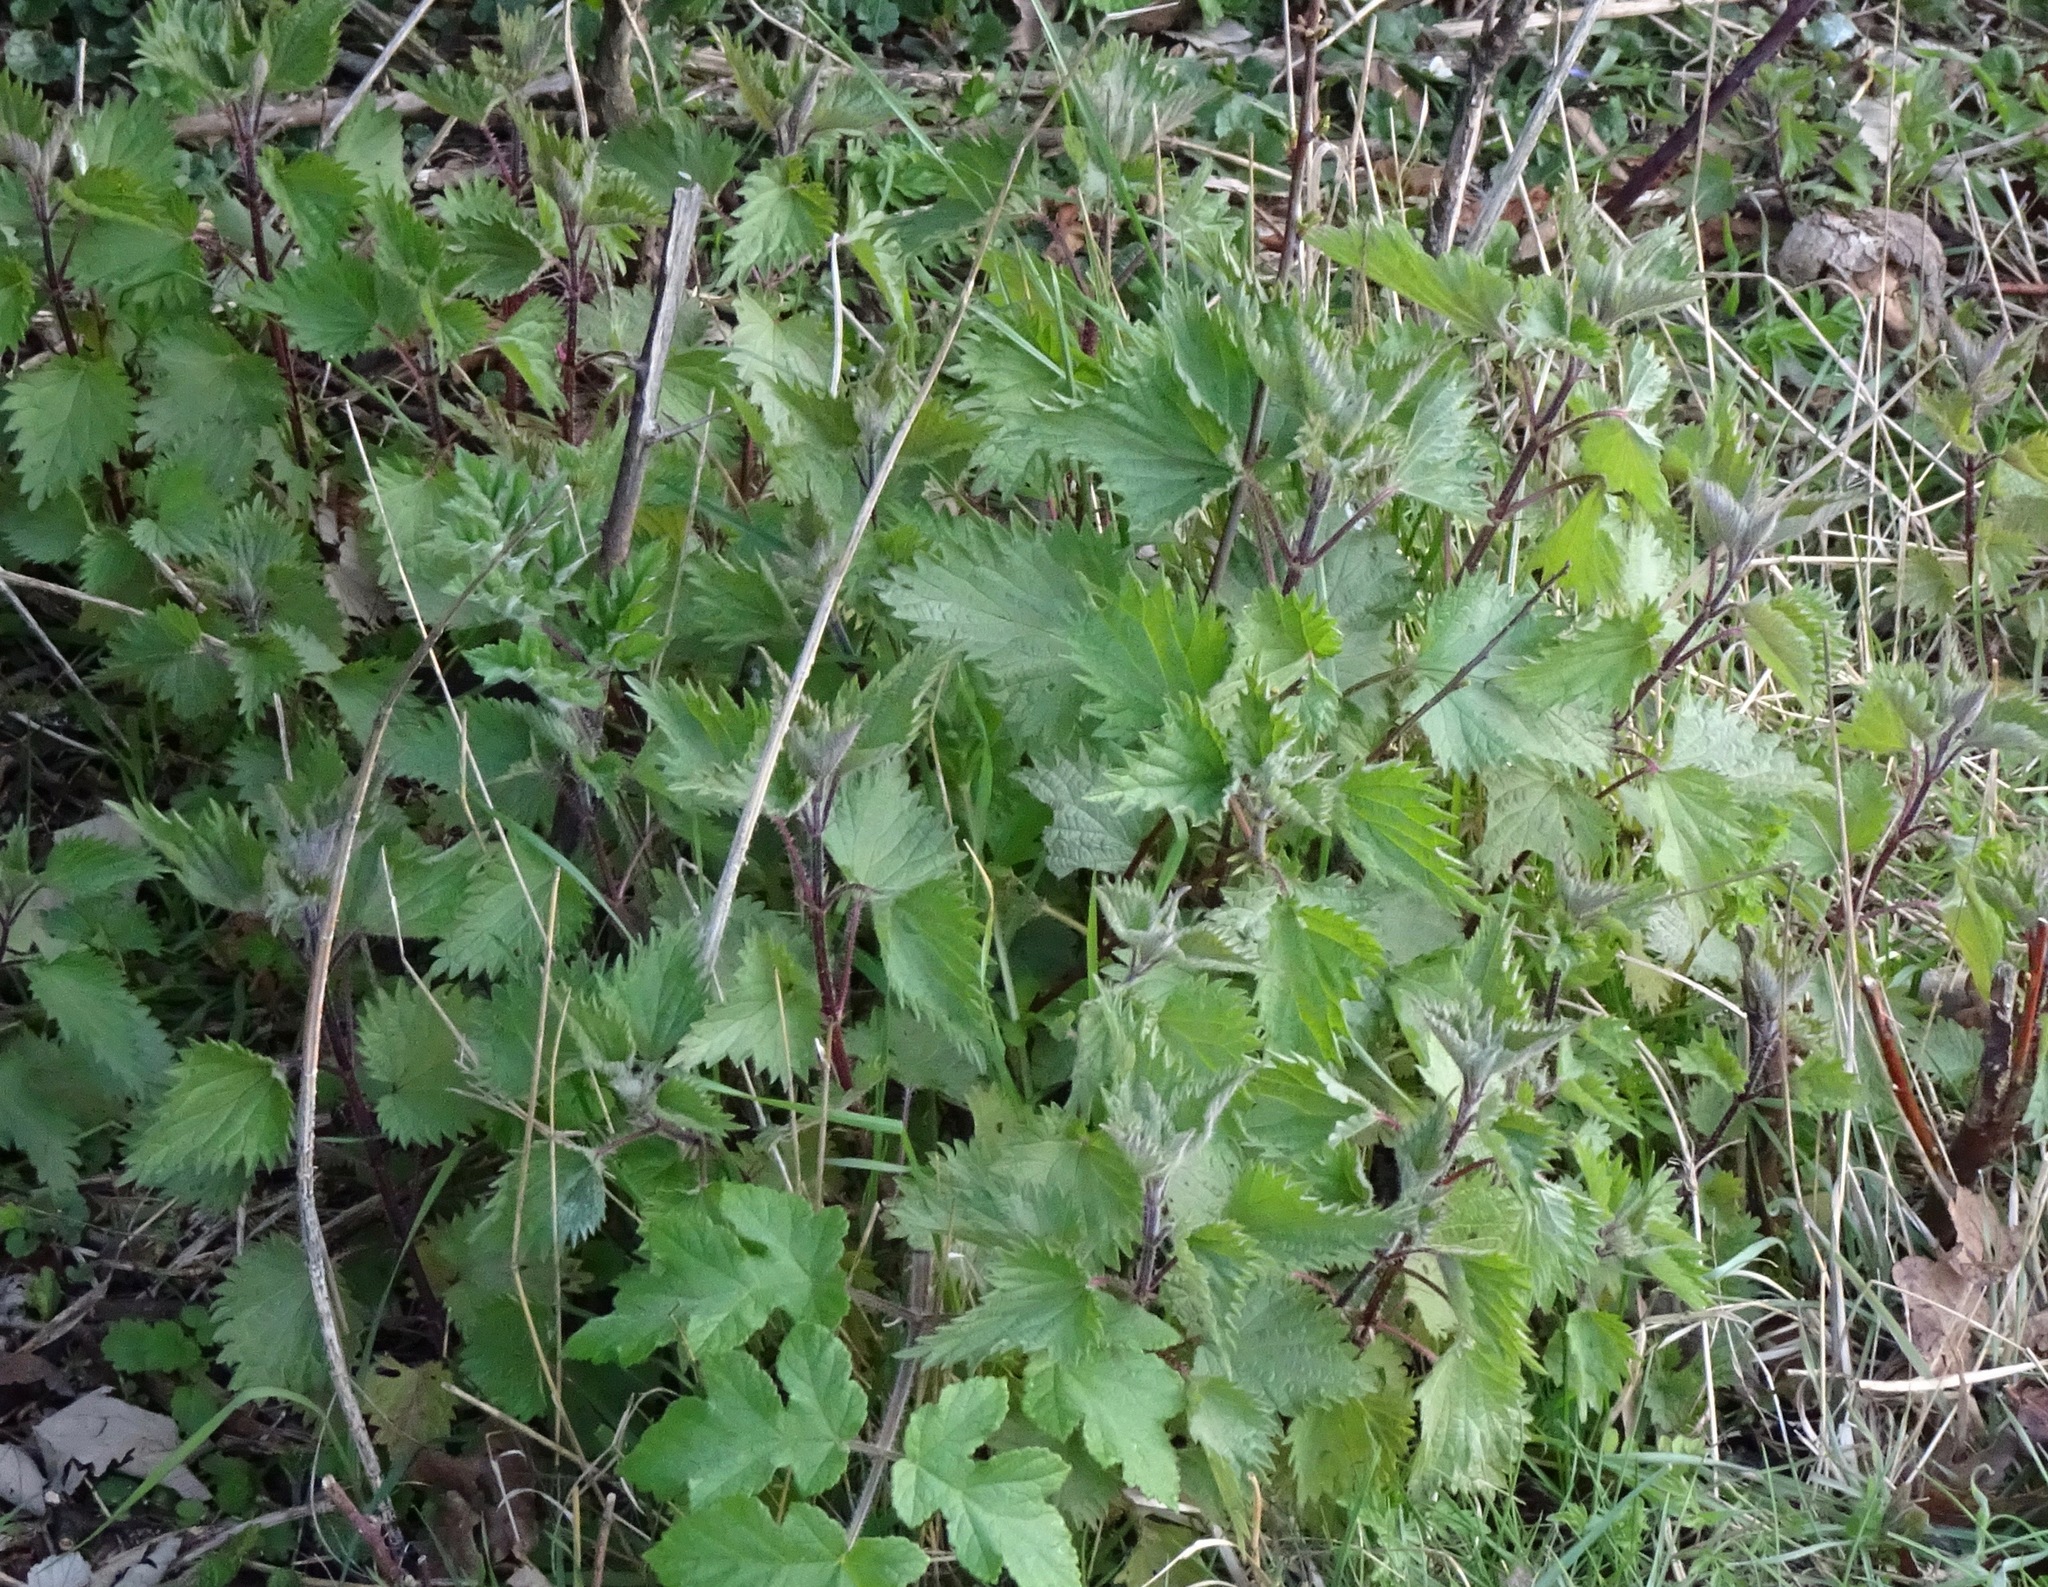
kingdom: Plantae
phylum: Tracheophyta
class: Magnoliopsida
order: Rosales
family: Urticaceae
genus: Urtica
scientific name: Urtica dioica
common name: Common nettle
